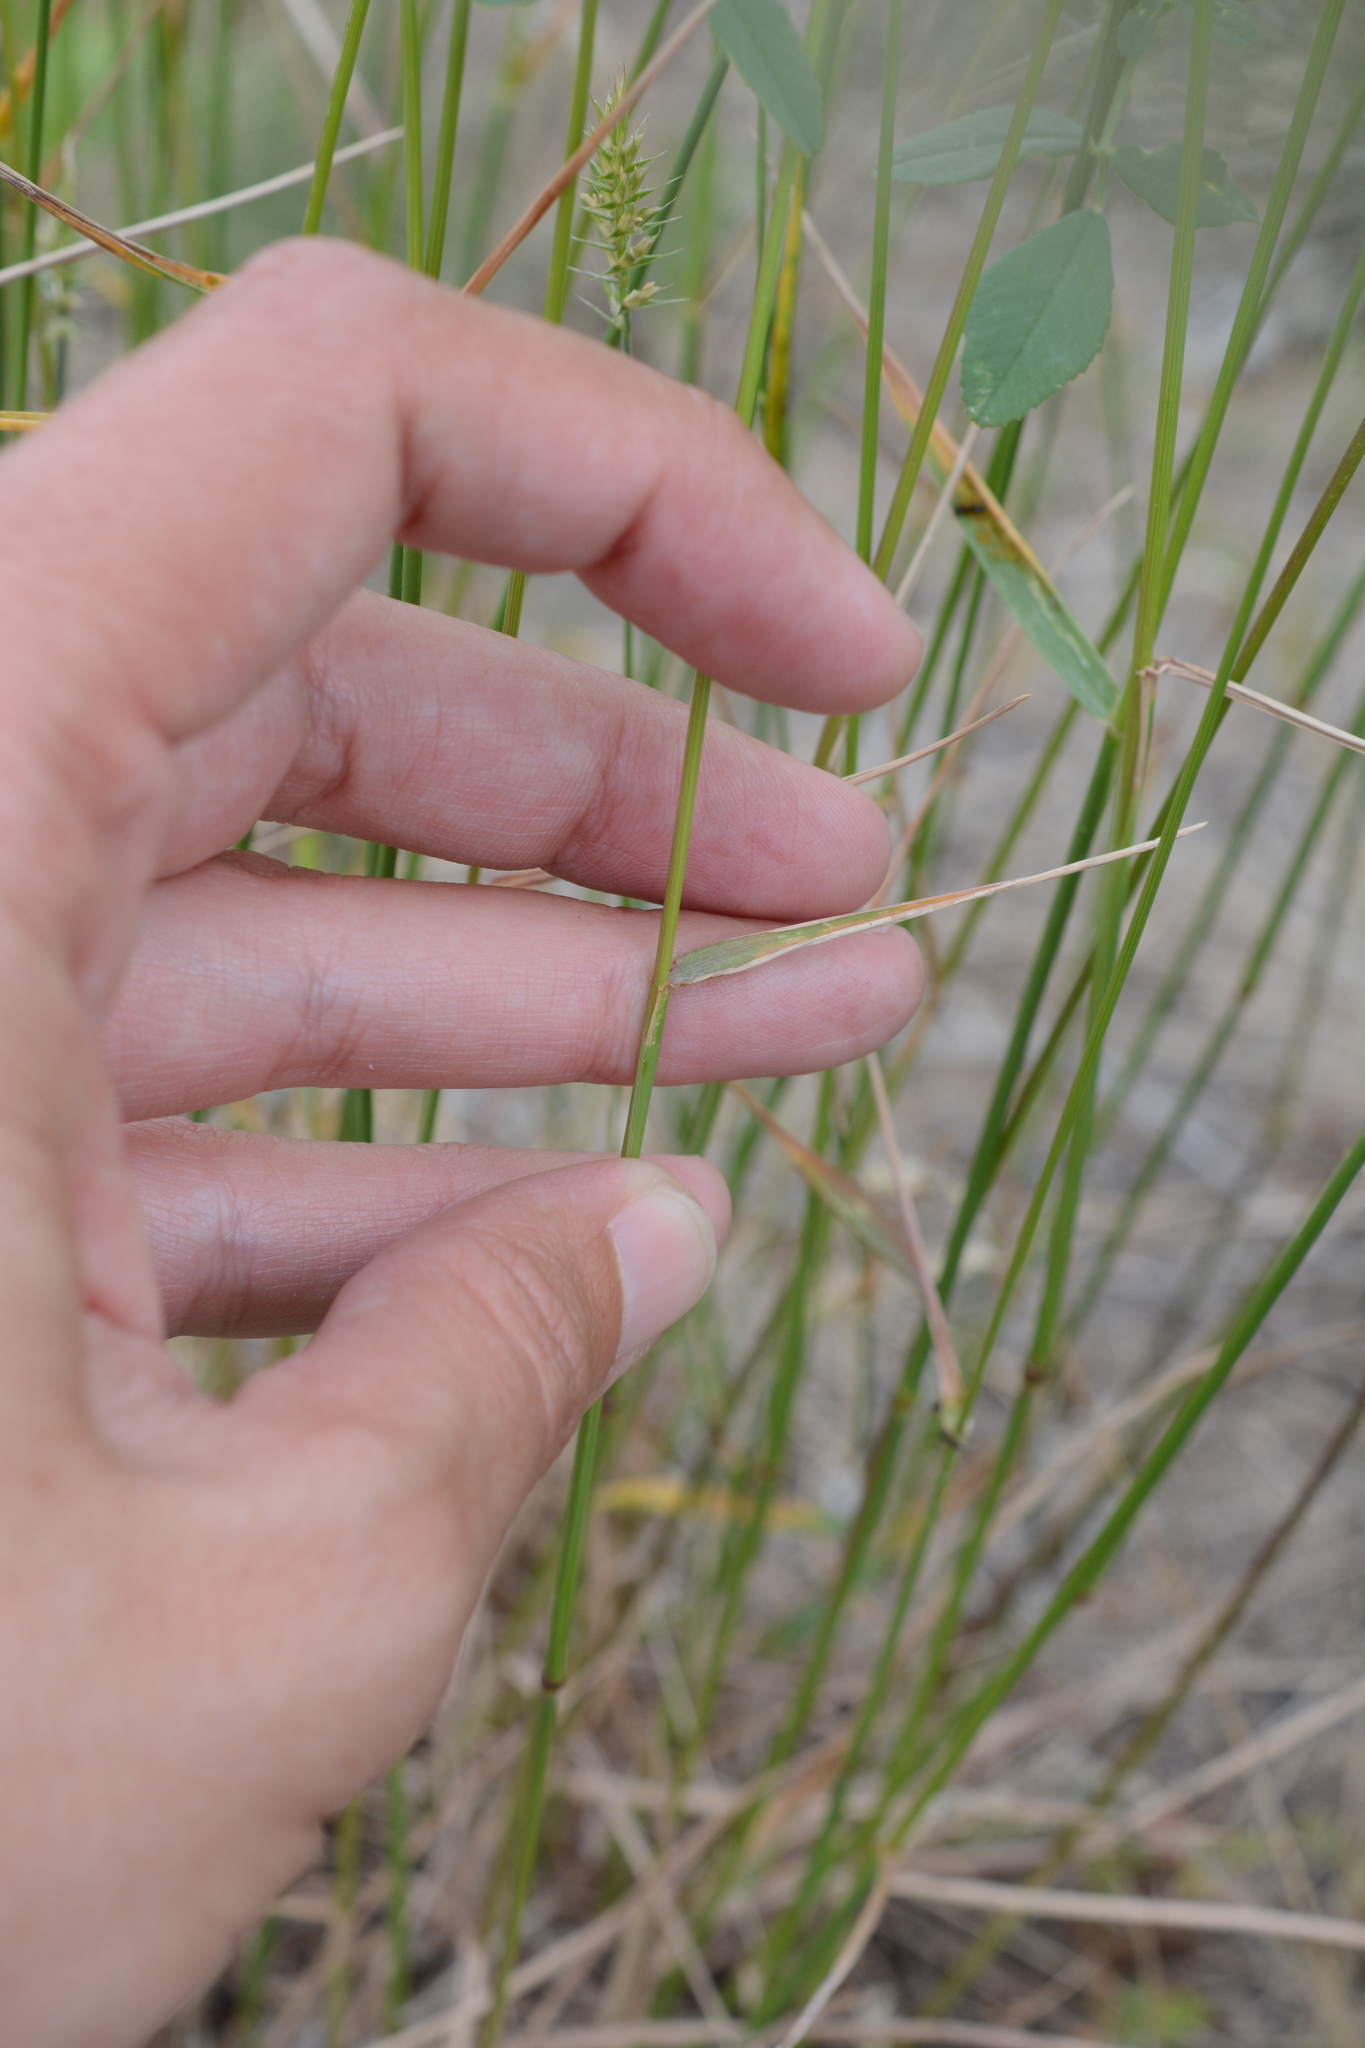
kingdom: Plantae
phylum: Tracheophyta
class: Liliopsida
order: Poales
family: Poaceae
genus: Agropyron
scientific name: Agropyron cristatum
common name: Crested wheatgrass
